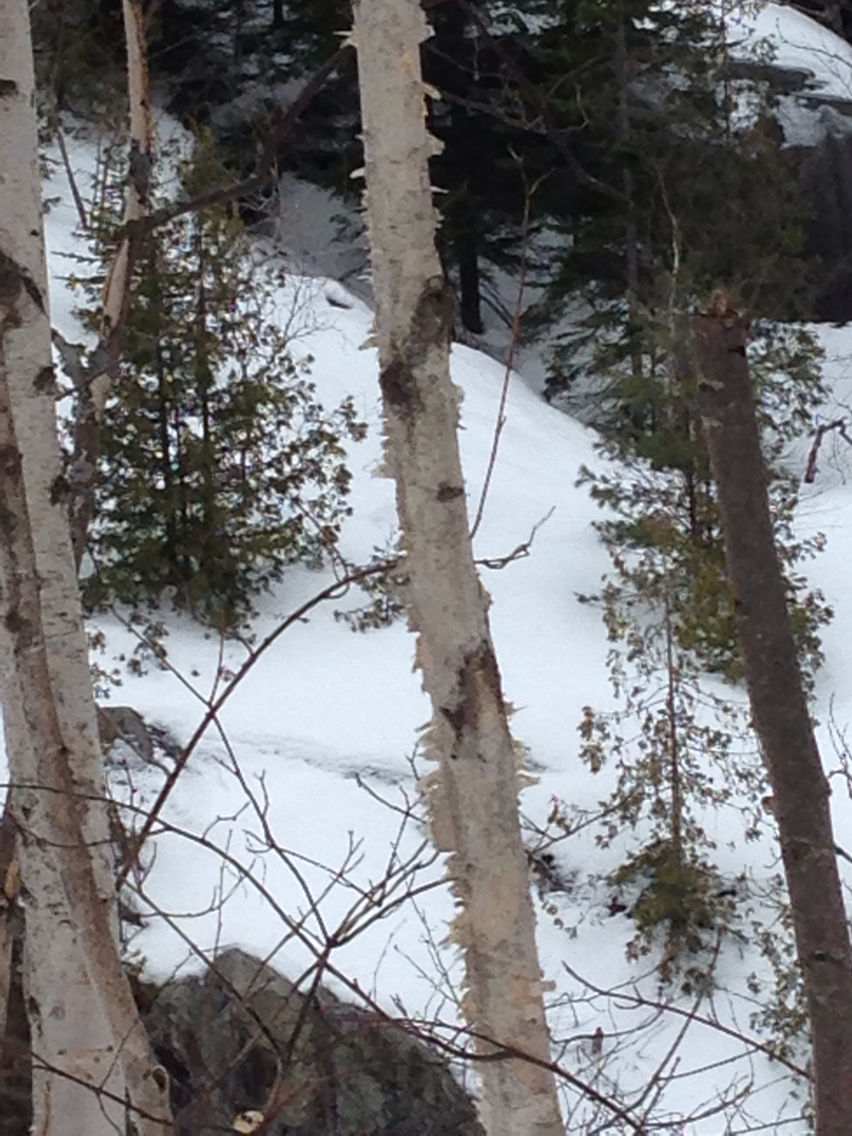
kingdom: Plantae
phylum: Tracheophyta
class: Pinopsida
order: Pinales
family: Cupressaceae
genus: Thuja
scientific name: Thuja occidentalis
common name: Northern white-cedar
